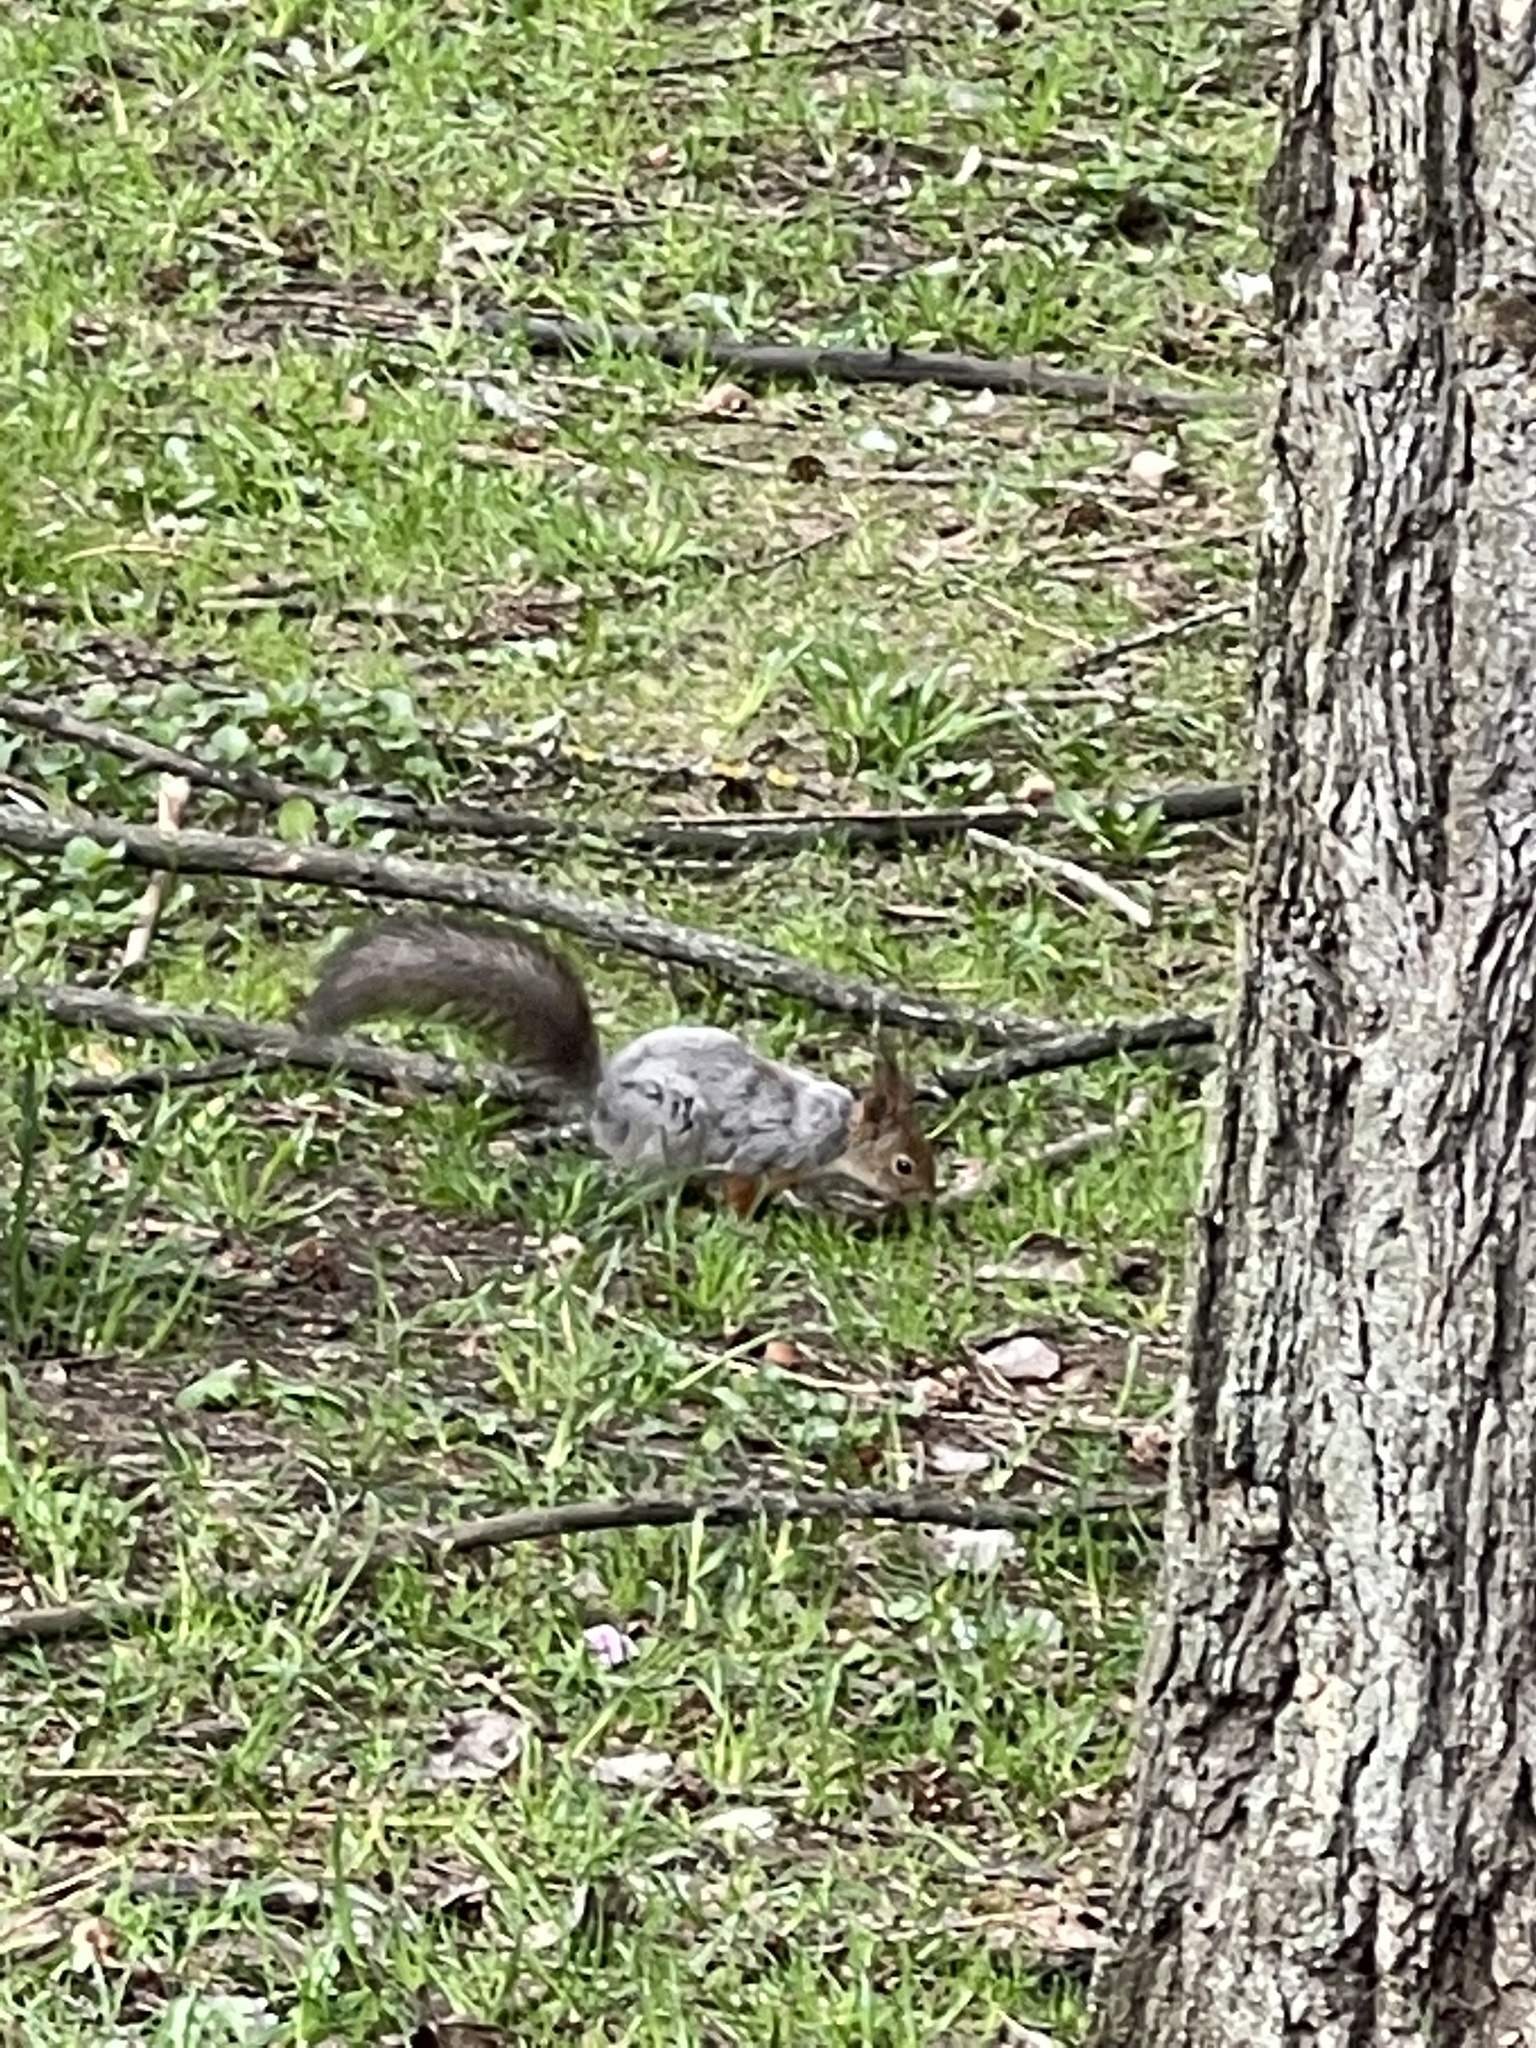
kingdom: Animalia
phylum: Chordata
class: Mammalia
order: Rodentia
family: Sciuridae
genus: Sciurus
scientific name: Sciurus vulgaris
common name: Eurasian red squirrel
